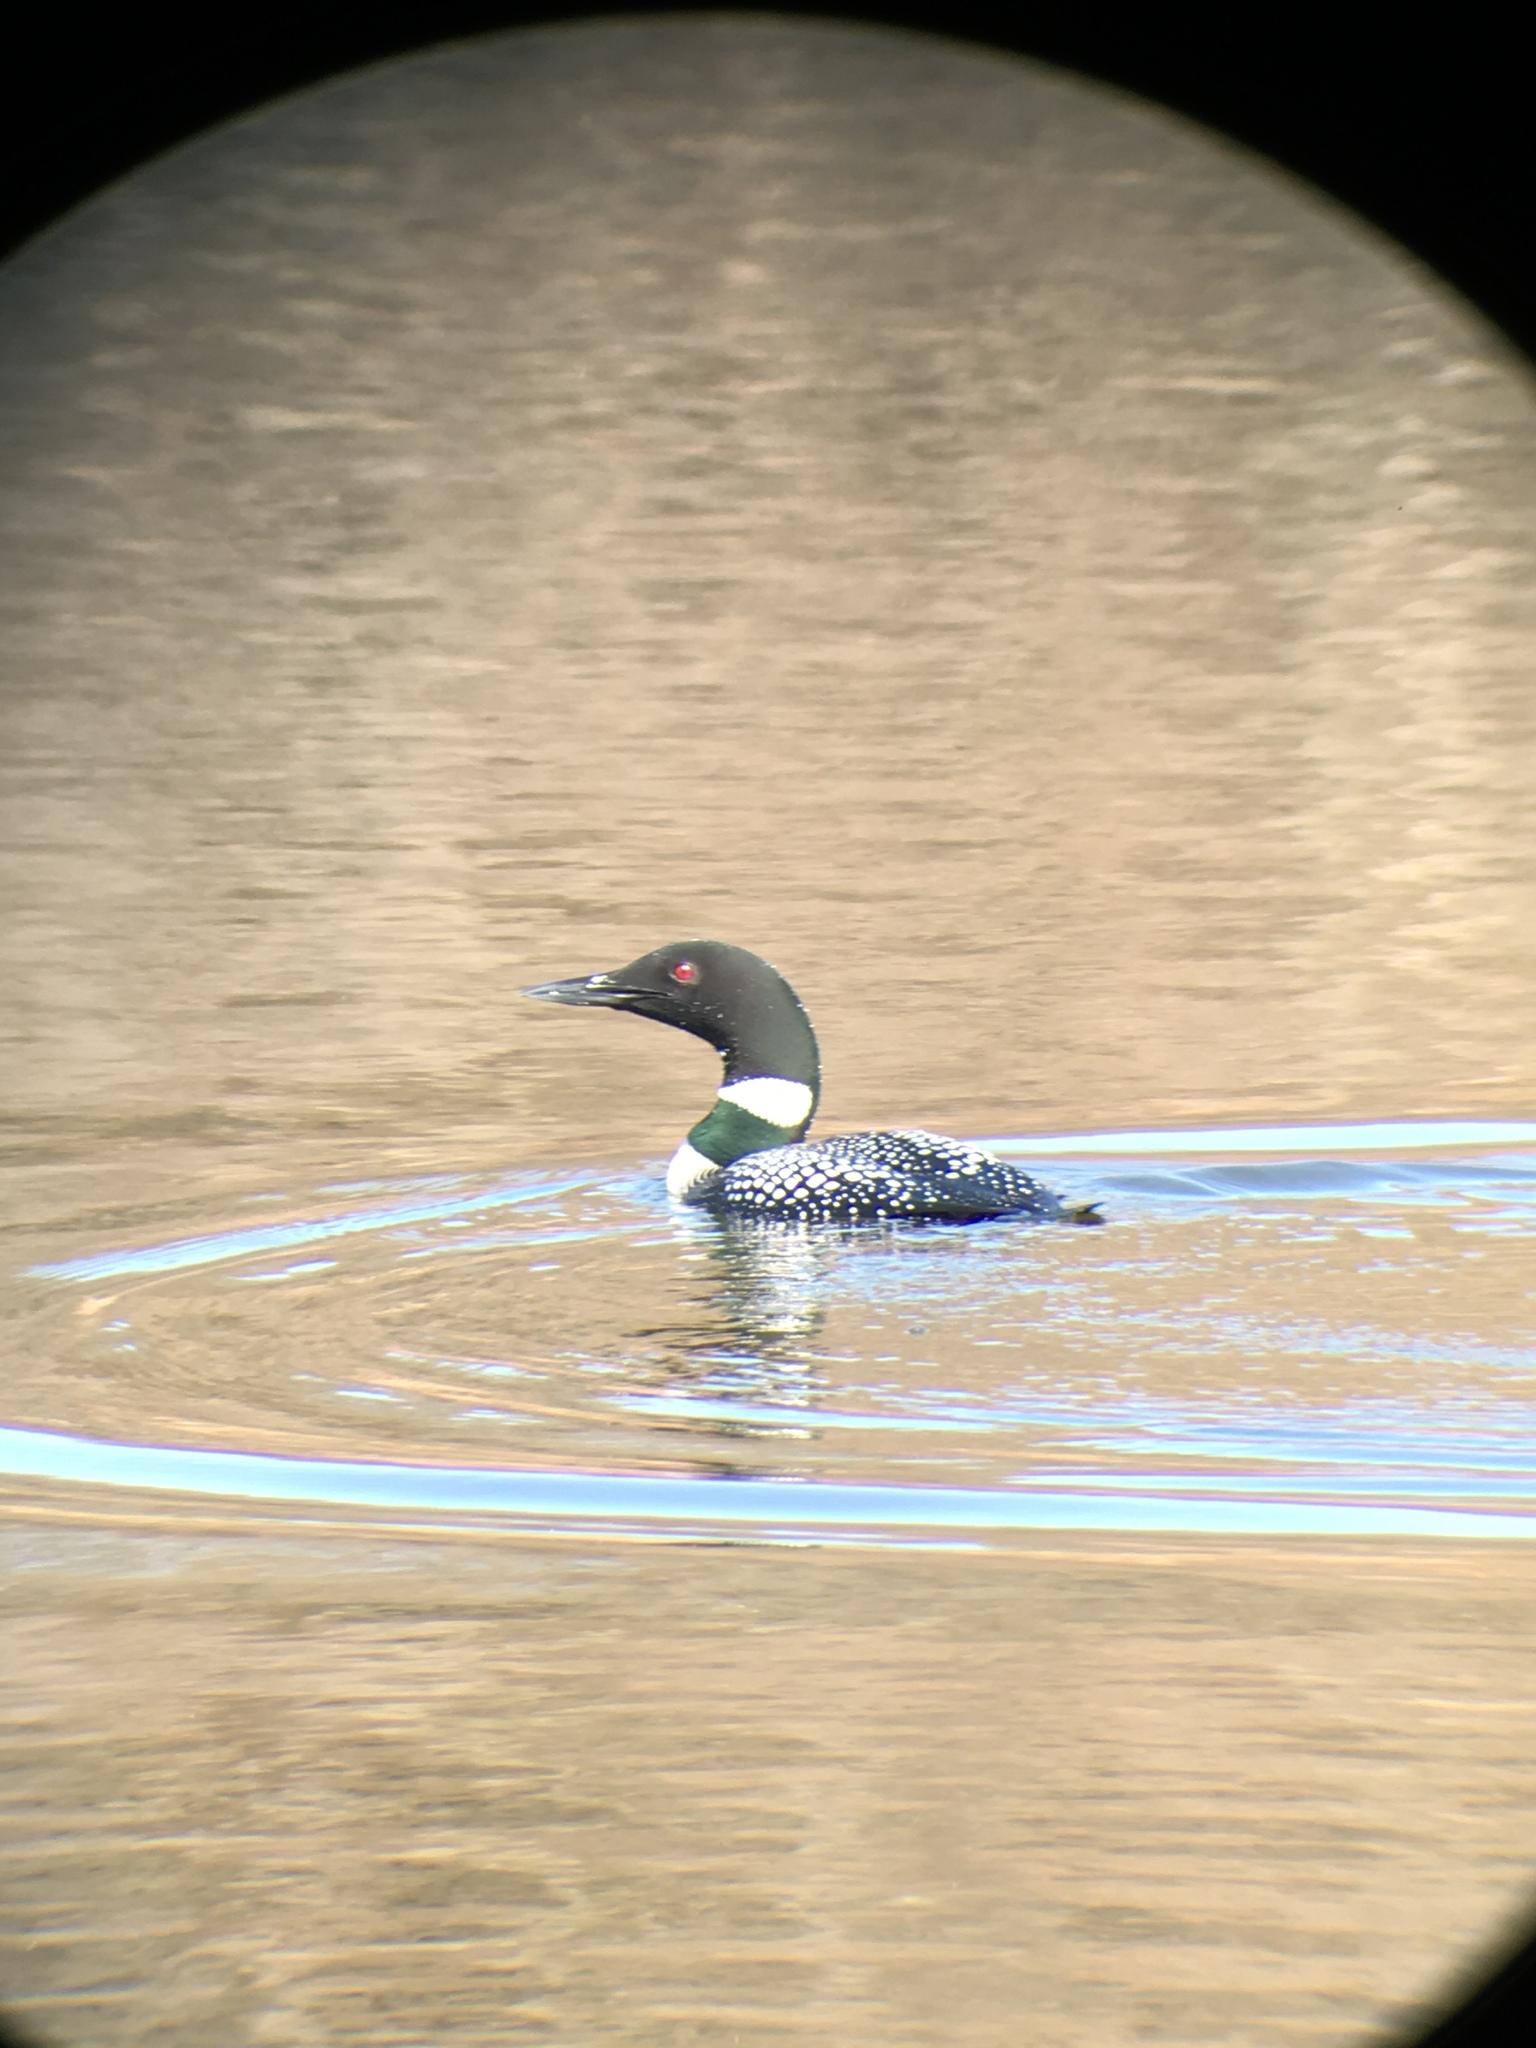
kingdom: Animalia
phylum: Chordata
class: Aves
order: Gaviiformes
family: Gaviidae
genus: Gavia
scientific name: Gavia immer
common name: Common loon
